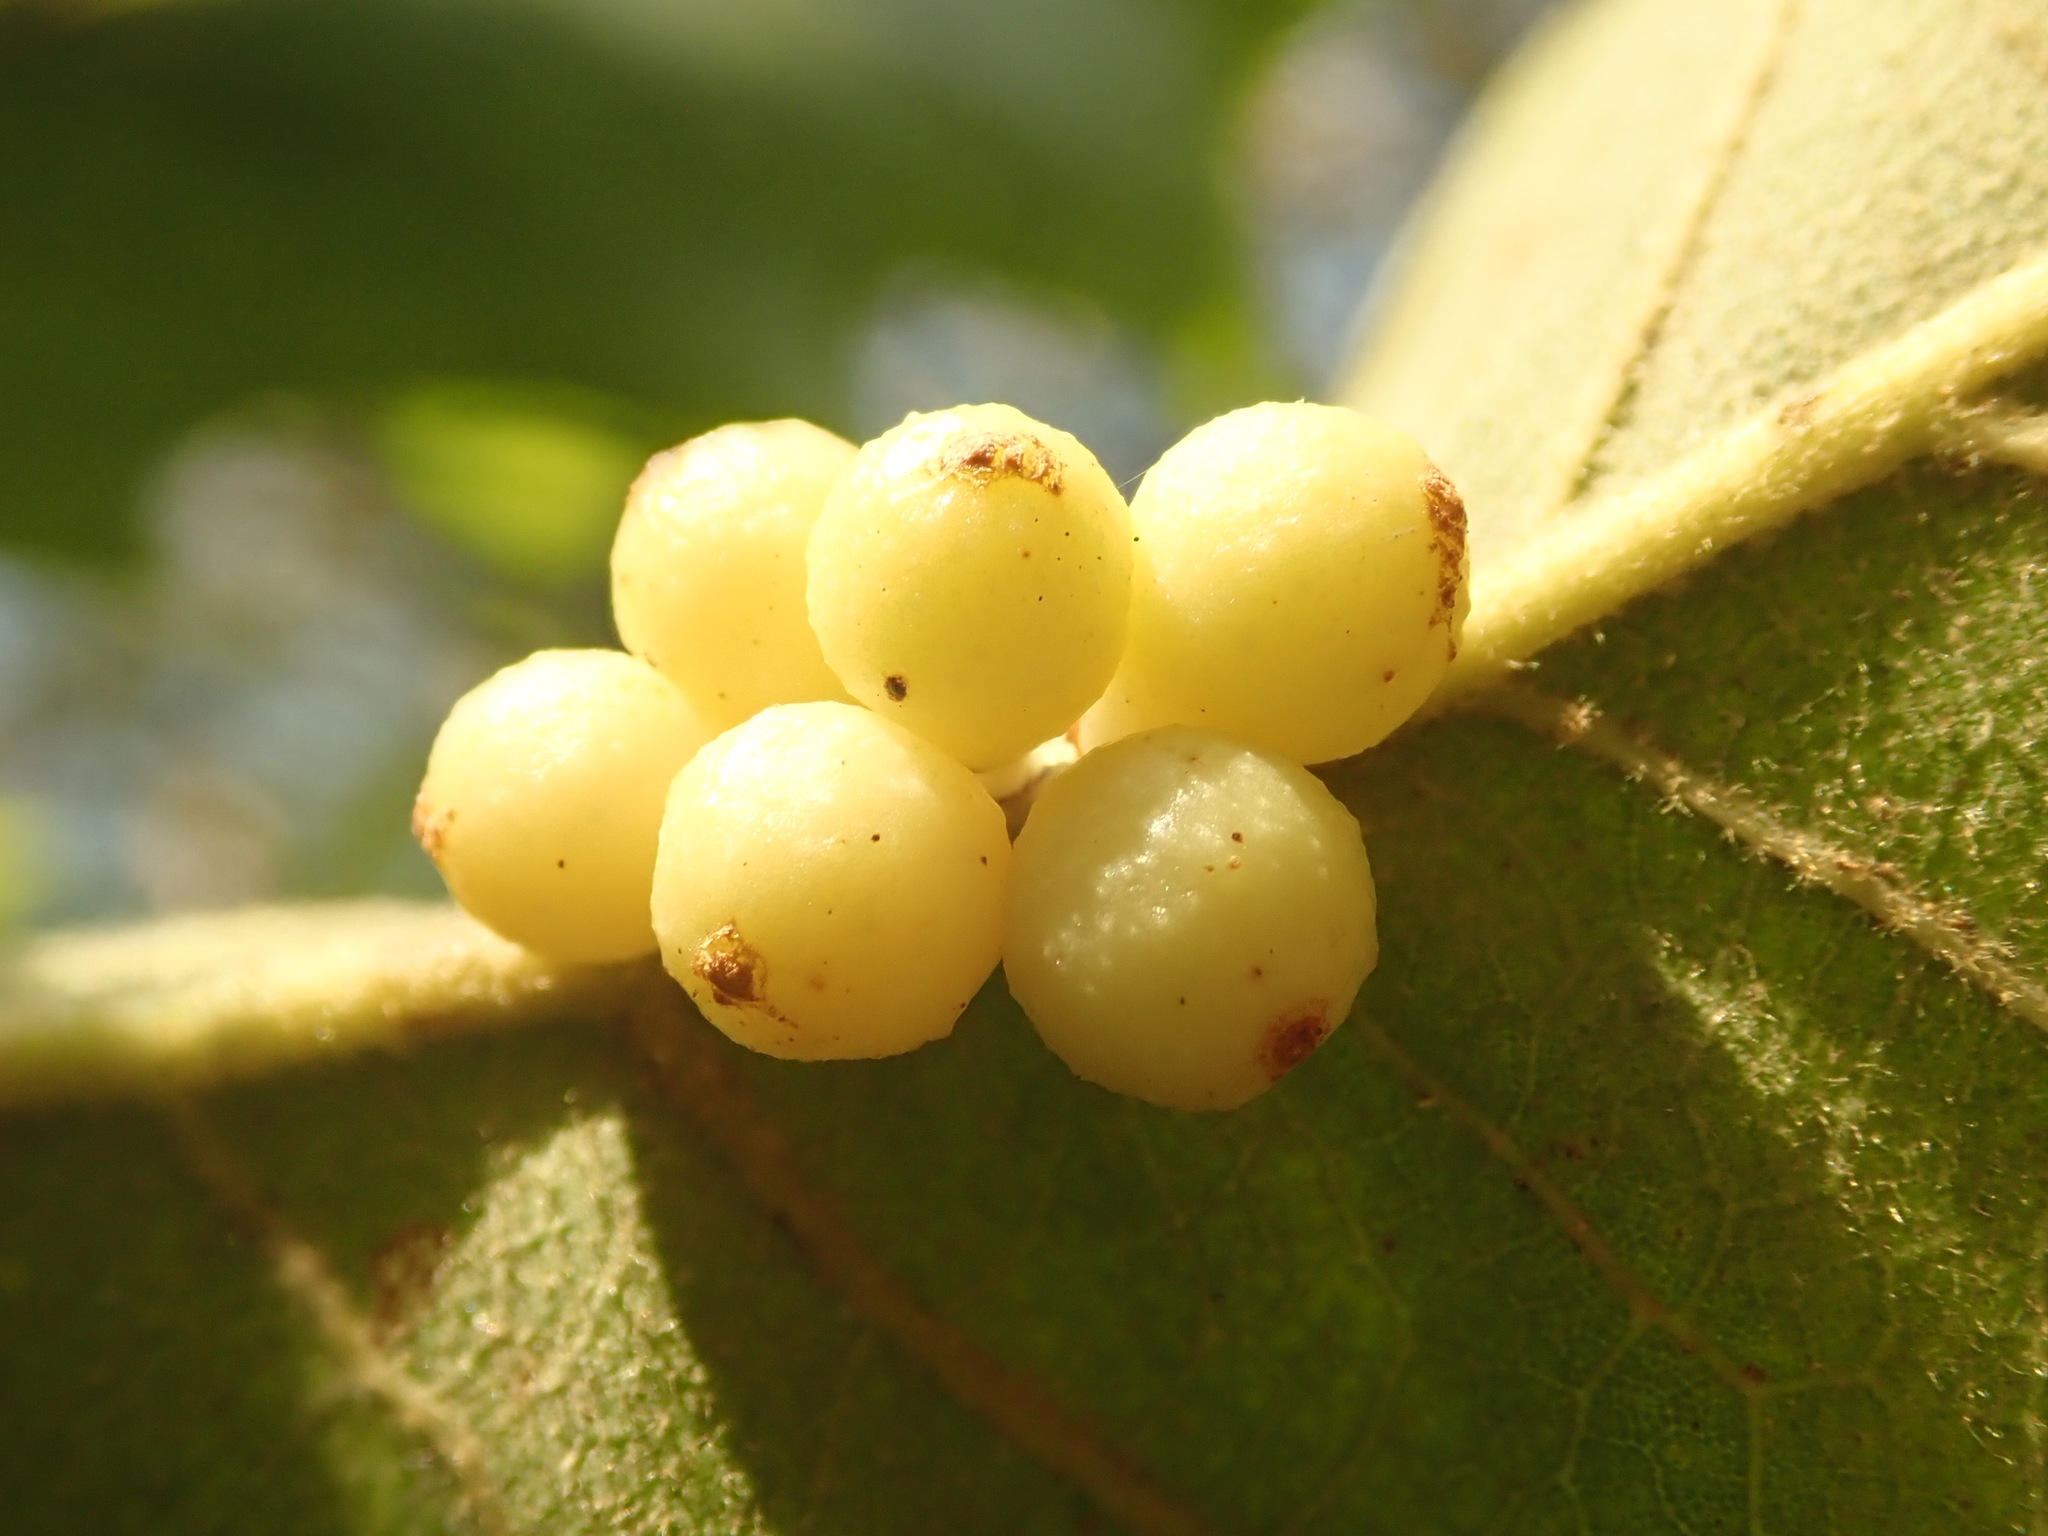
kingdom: Animalia
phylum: Arthropoda
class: Insecta
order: Hymenoptera
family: Cynipidae
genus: Andricus
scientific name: Andricus
